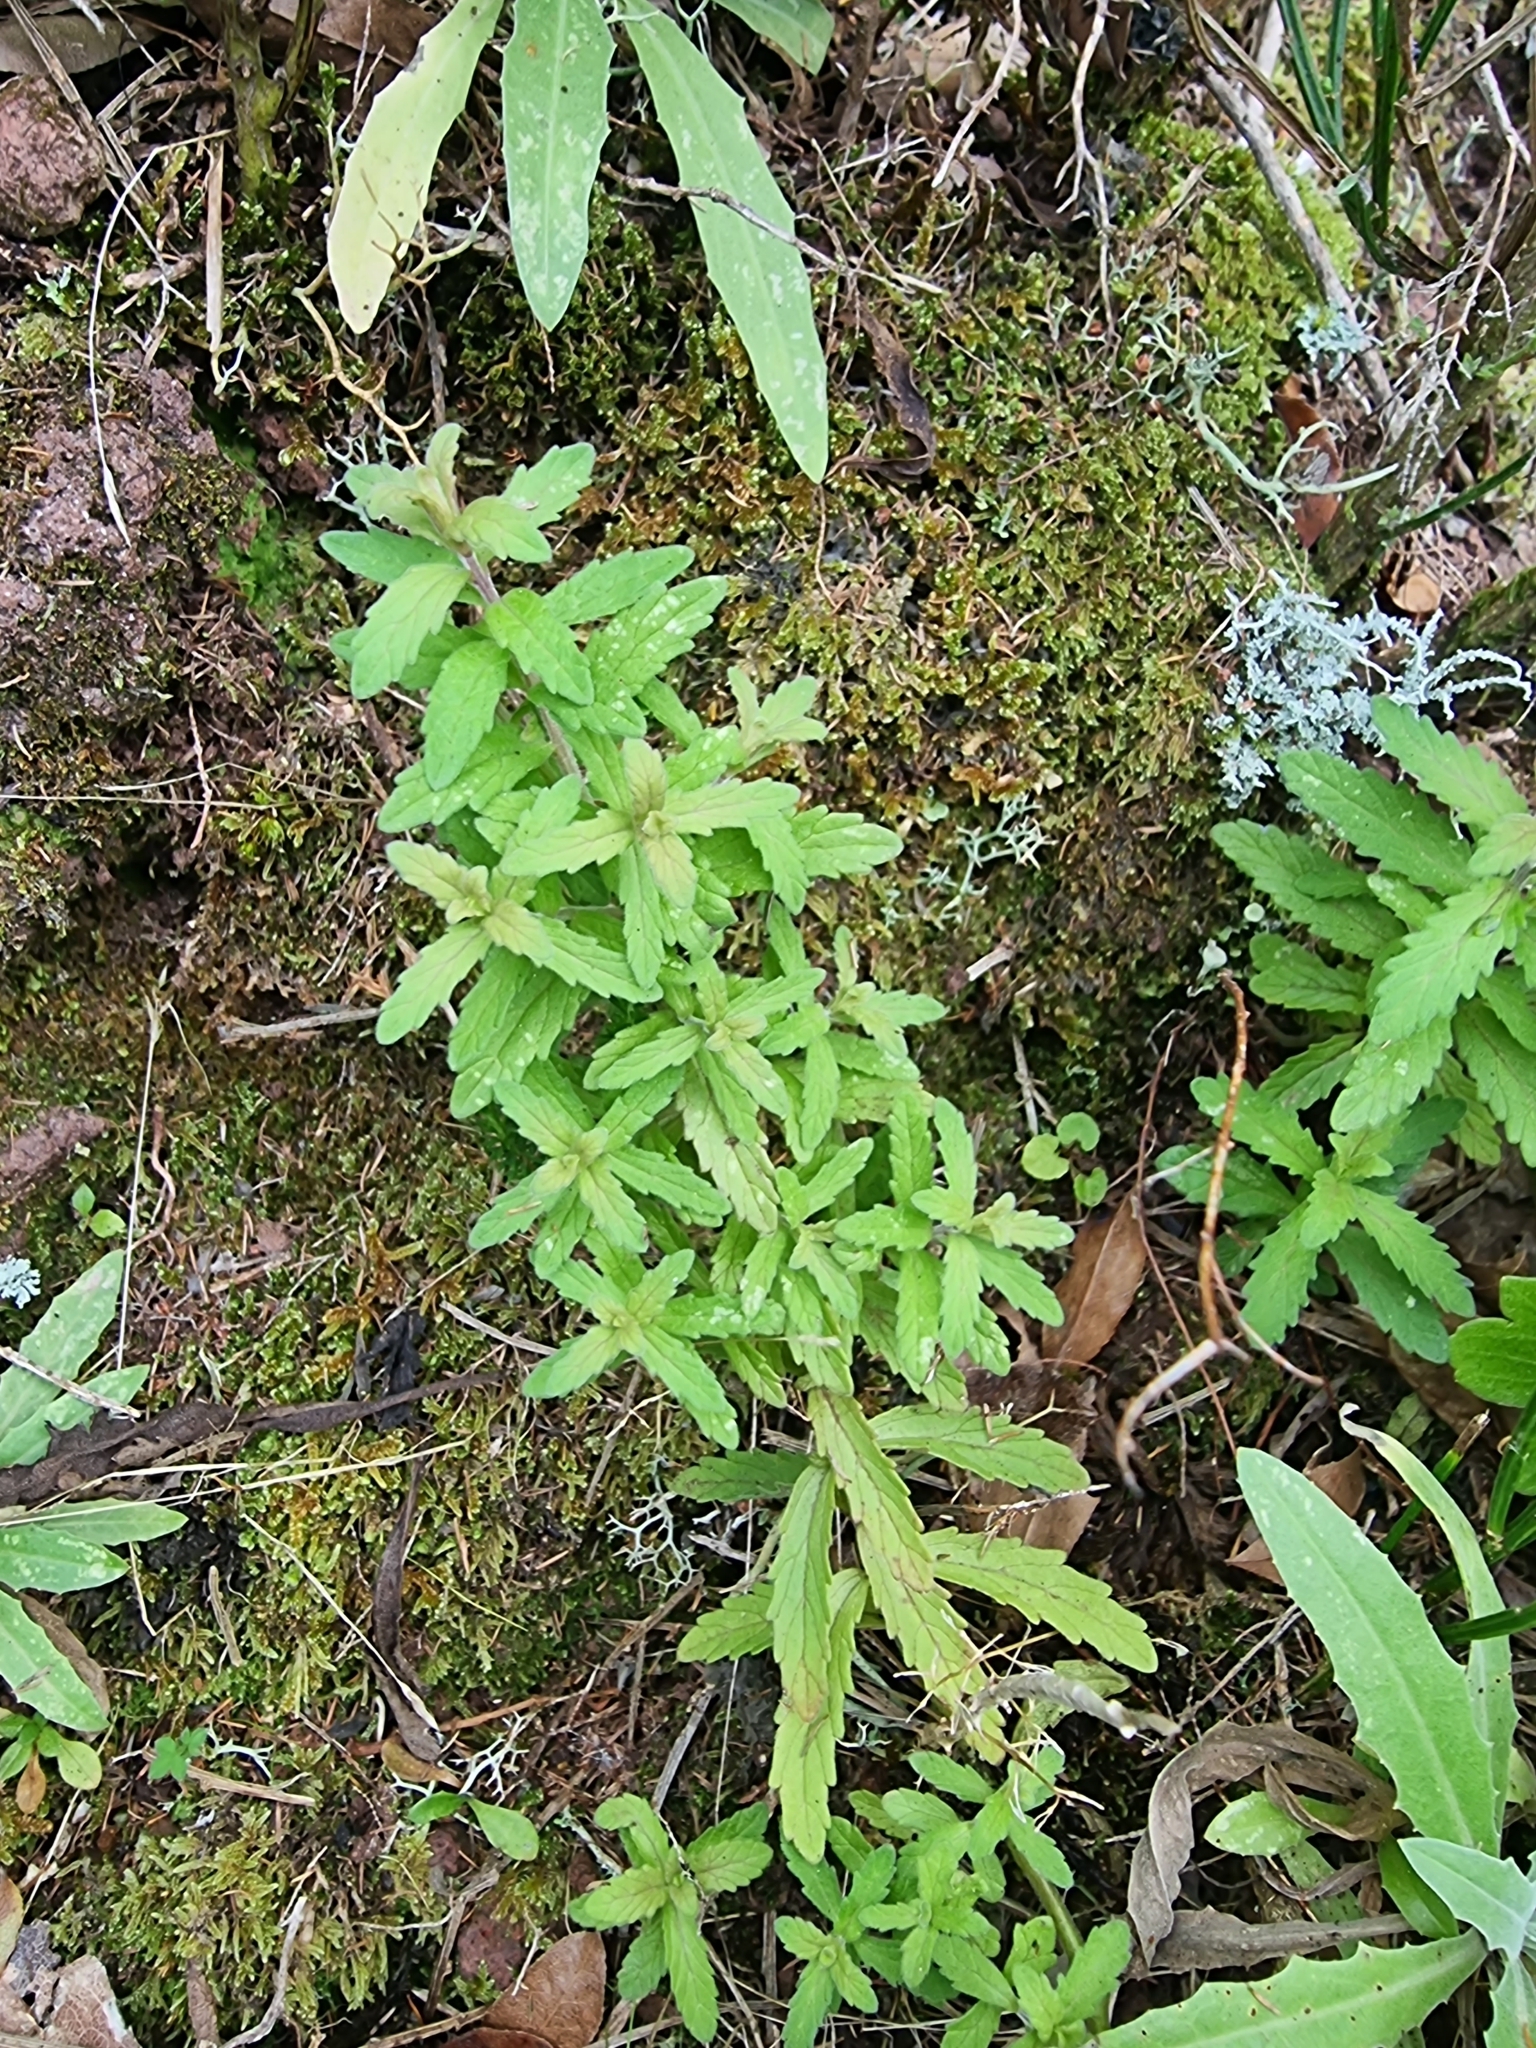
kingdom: Plantae
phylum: Tracheophyta
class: Magnoliopsida
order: Lamiales
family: Orobanchaceae
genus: Odontites
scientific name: Odontites hollianus
